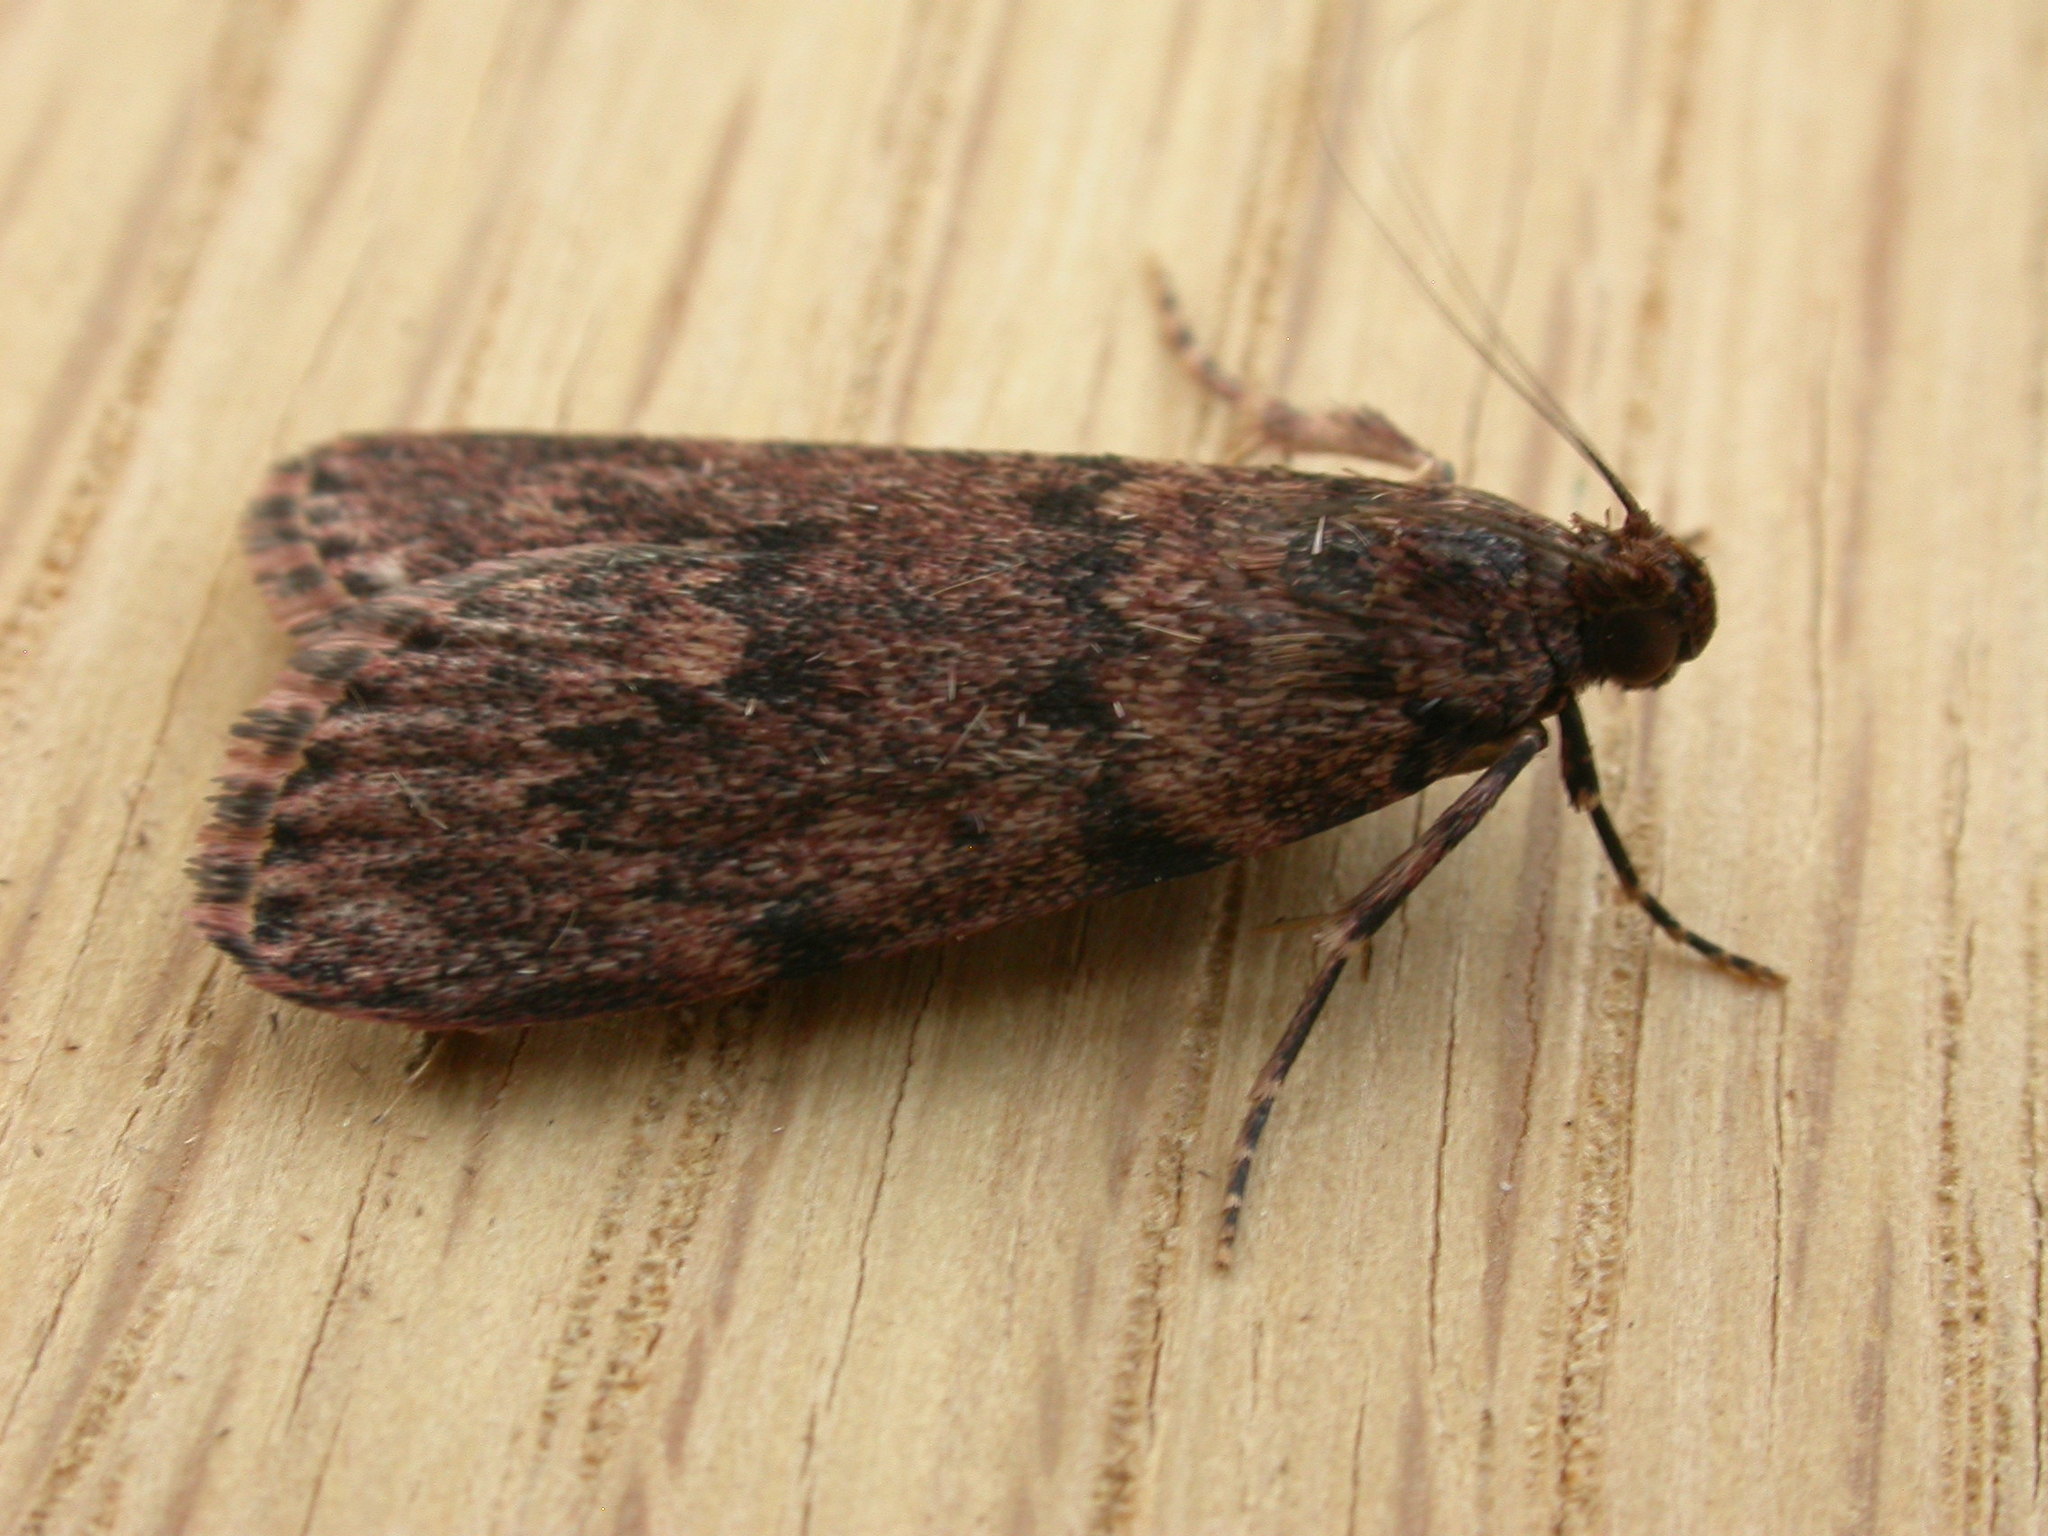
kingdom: Animalia
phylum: Arthropoda
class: Insecta
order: Lepidoptera
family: Pyralidae
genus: Mimaglossa
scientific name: Mimaglossa nauplialis
